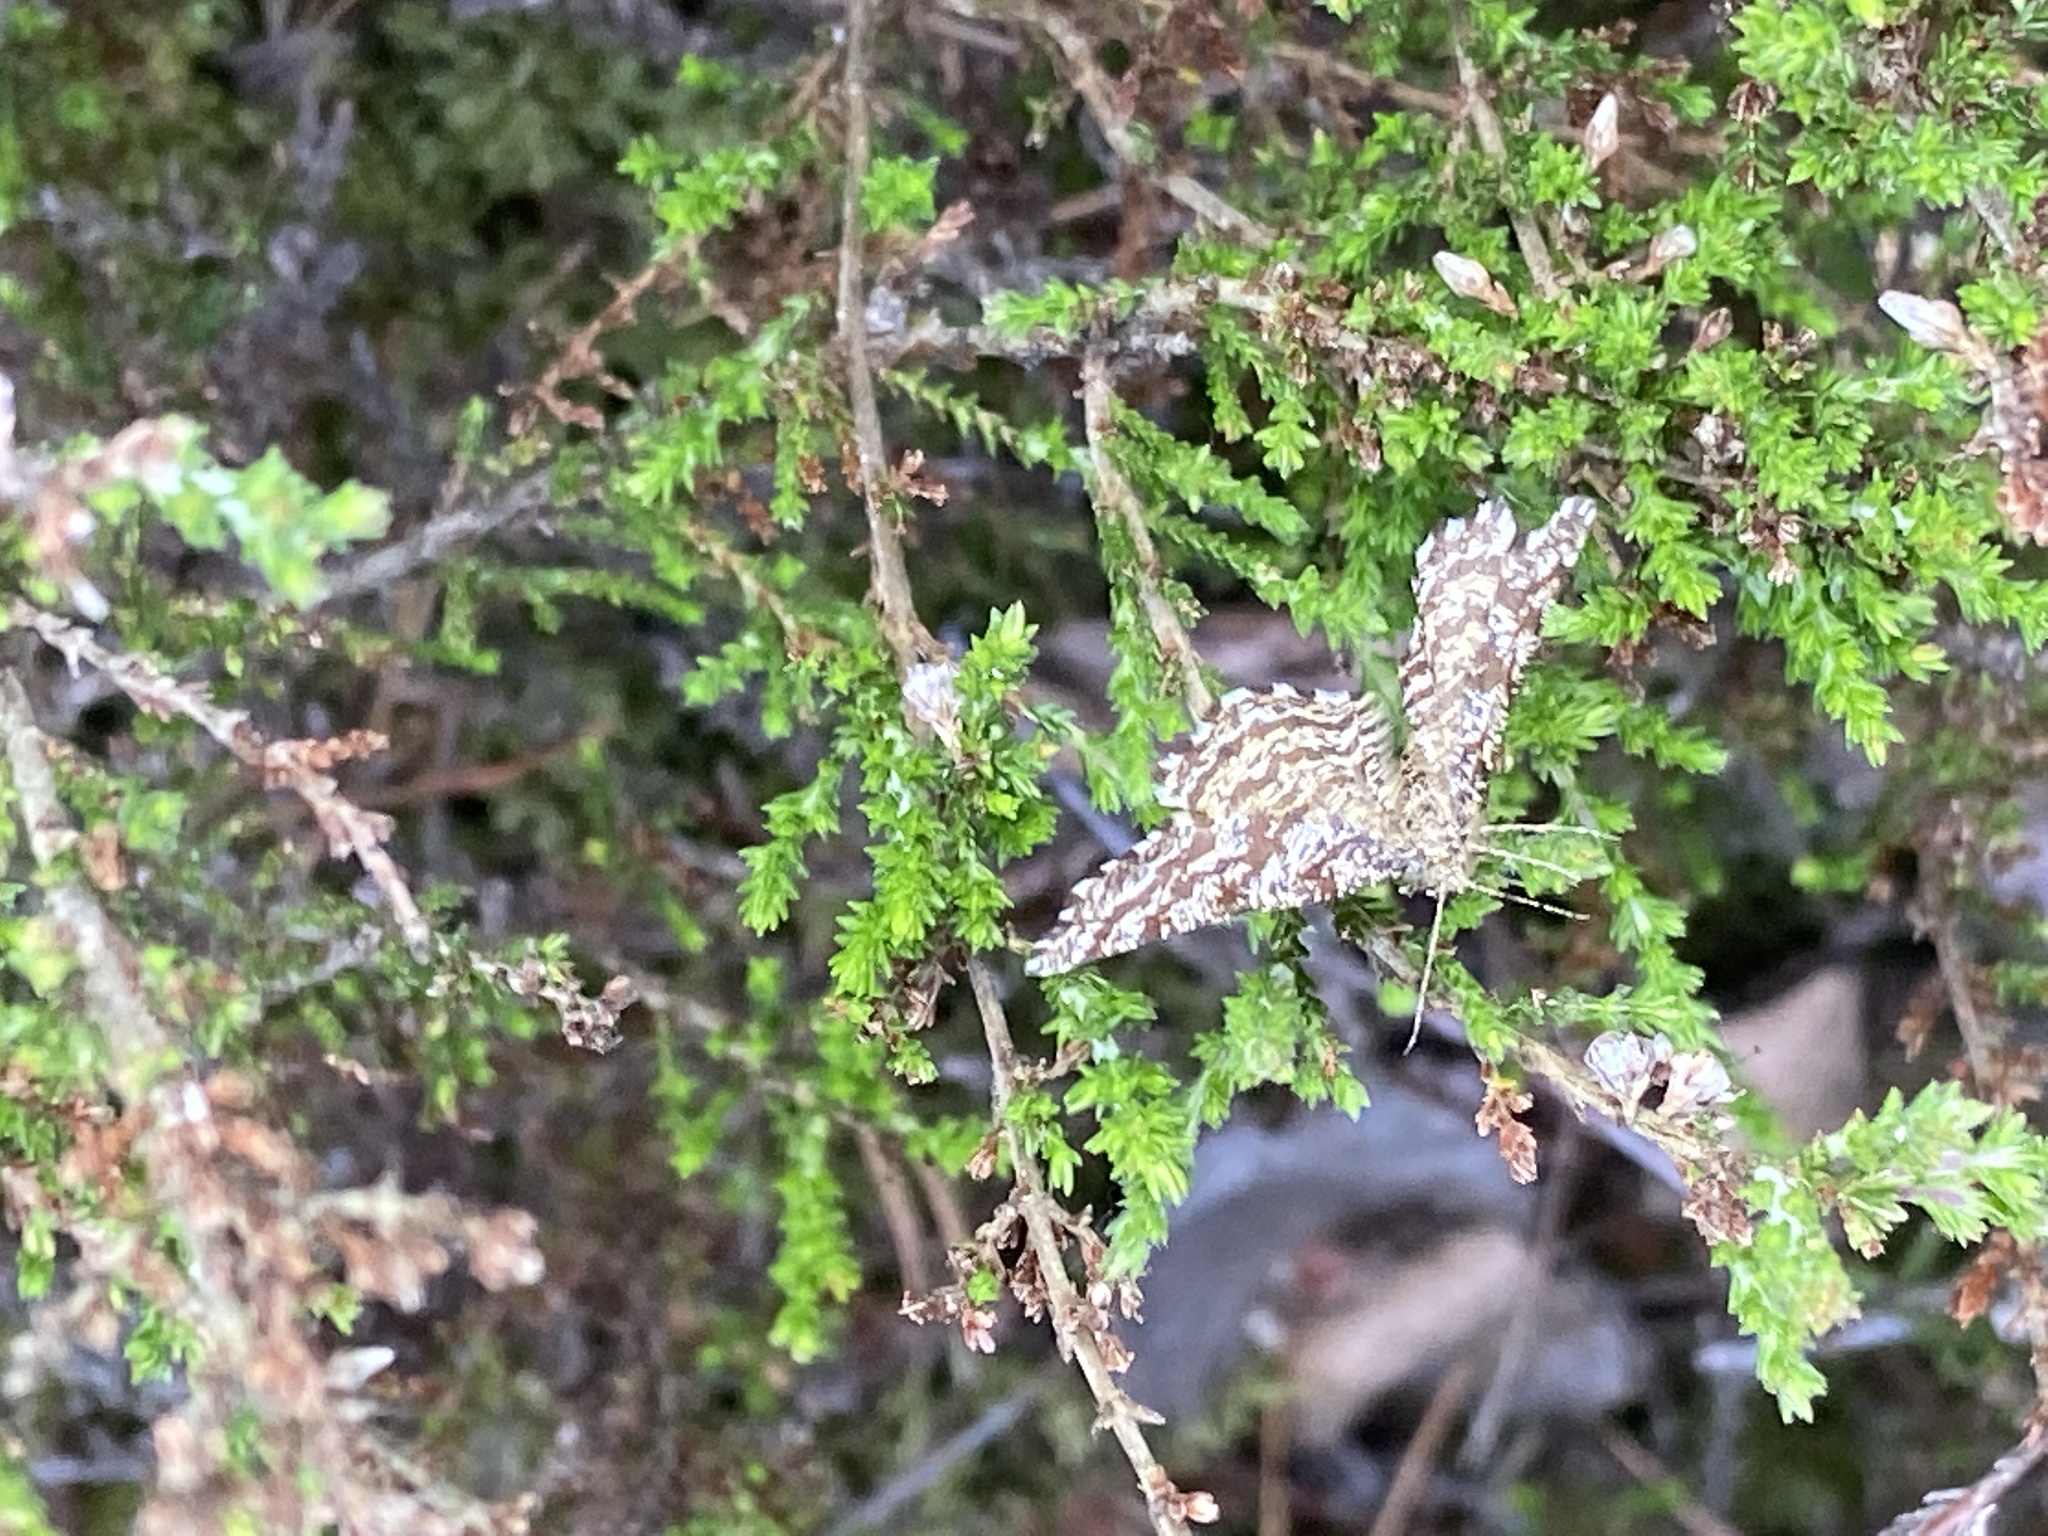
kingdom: Animalia
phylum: Arthropoda
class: Insecta
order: Lepidoptera
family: Geometridae
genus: Ematurga
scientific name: Ematurga atomaria
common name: Common heath
